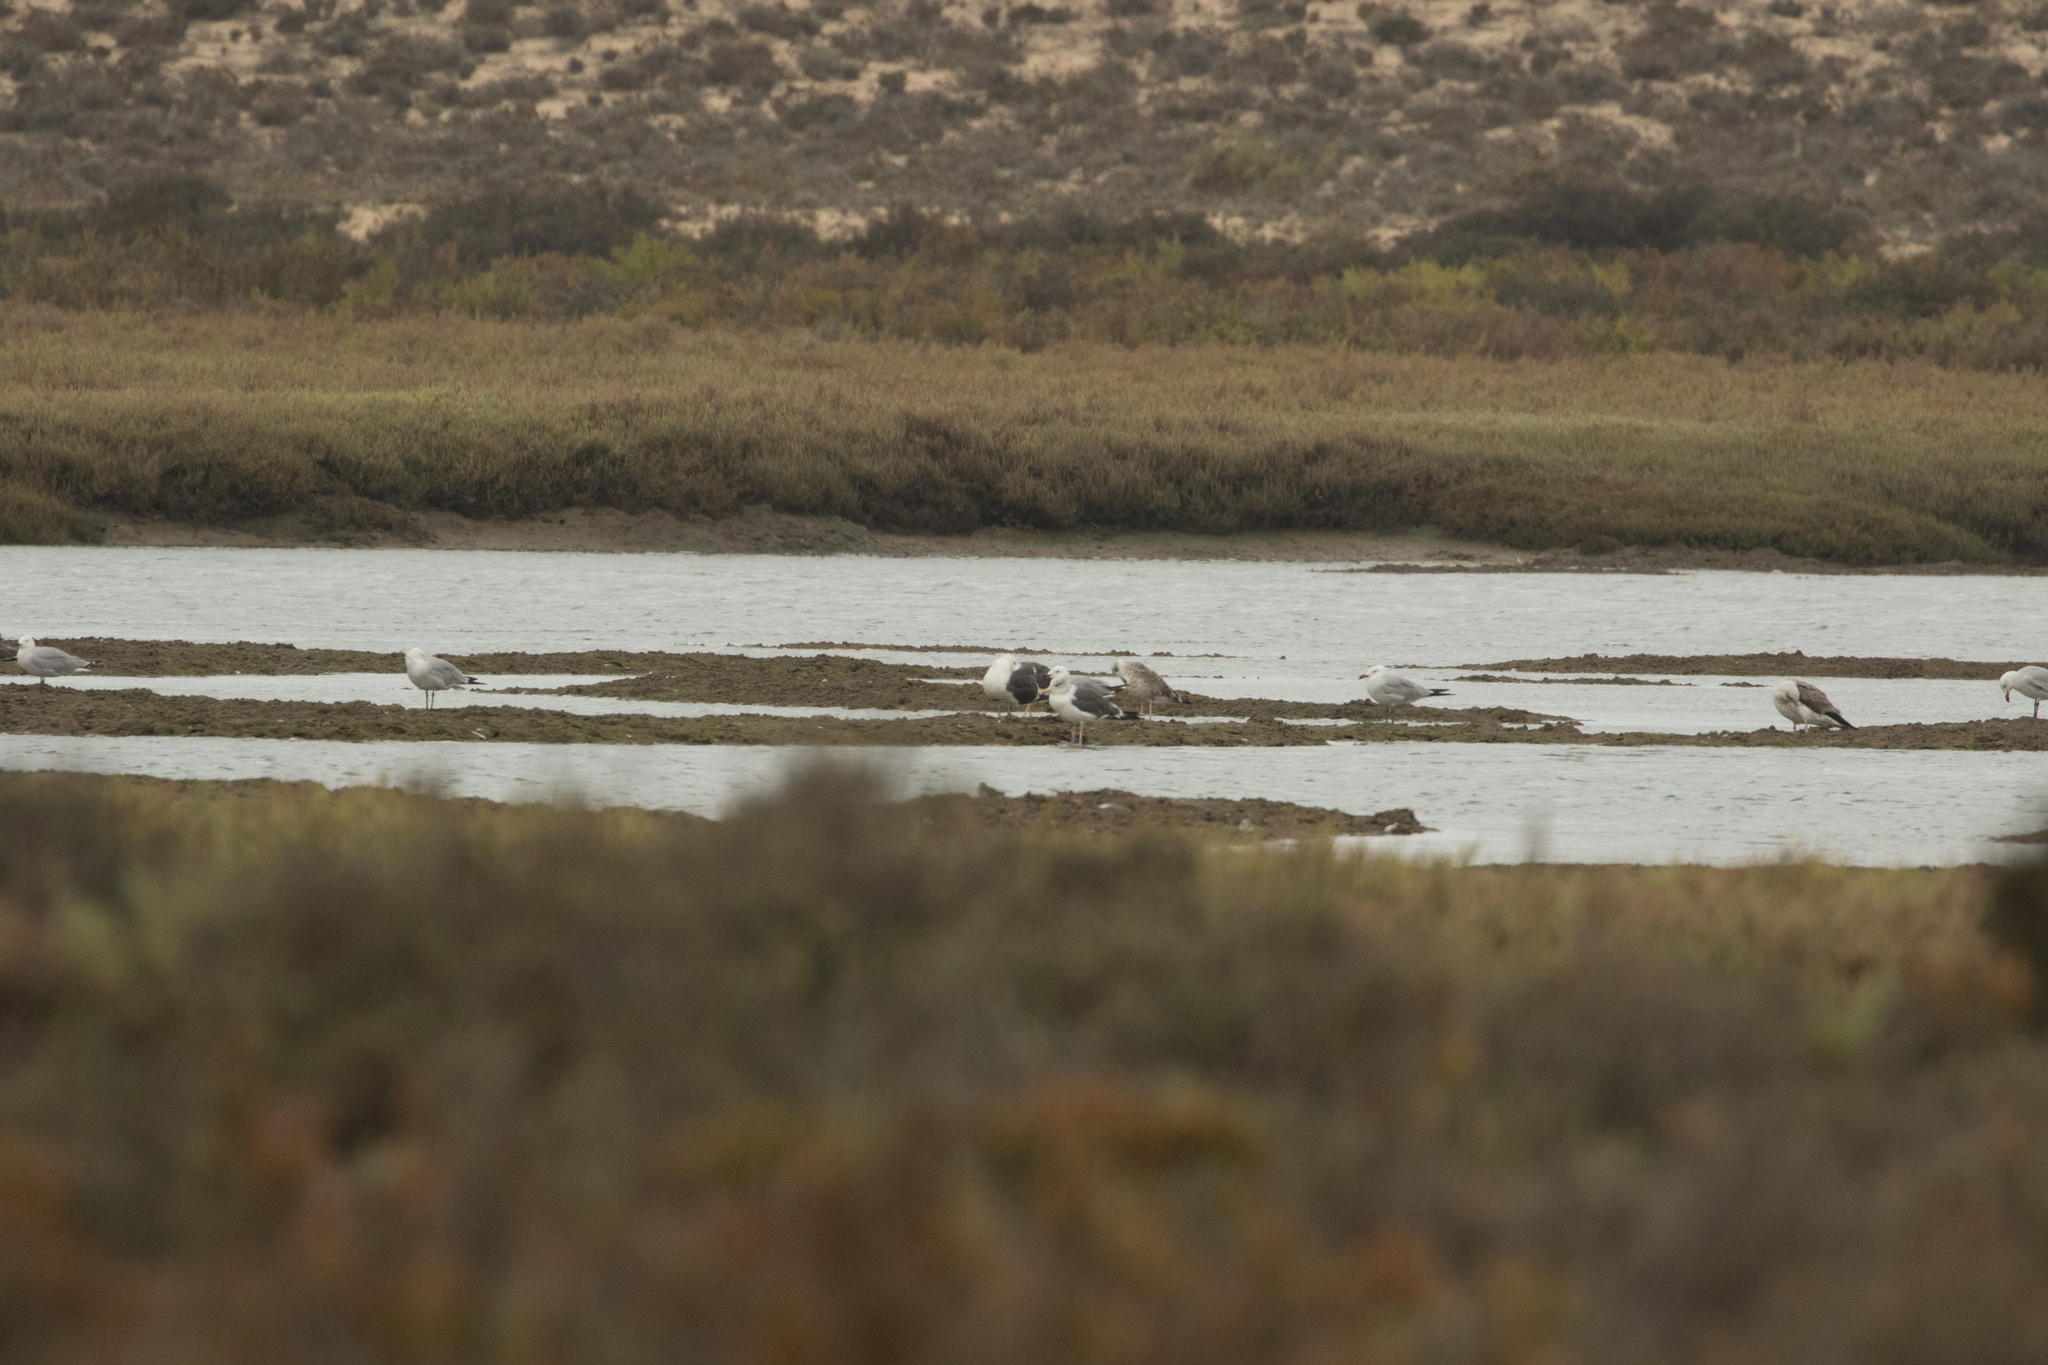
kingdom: Animalia
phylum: Chordata
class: Aves
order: Charadriiformes
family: Laridae
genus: Ichthyaetus
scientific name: Ichthyaetus audouinii
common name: Audouin's gull
